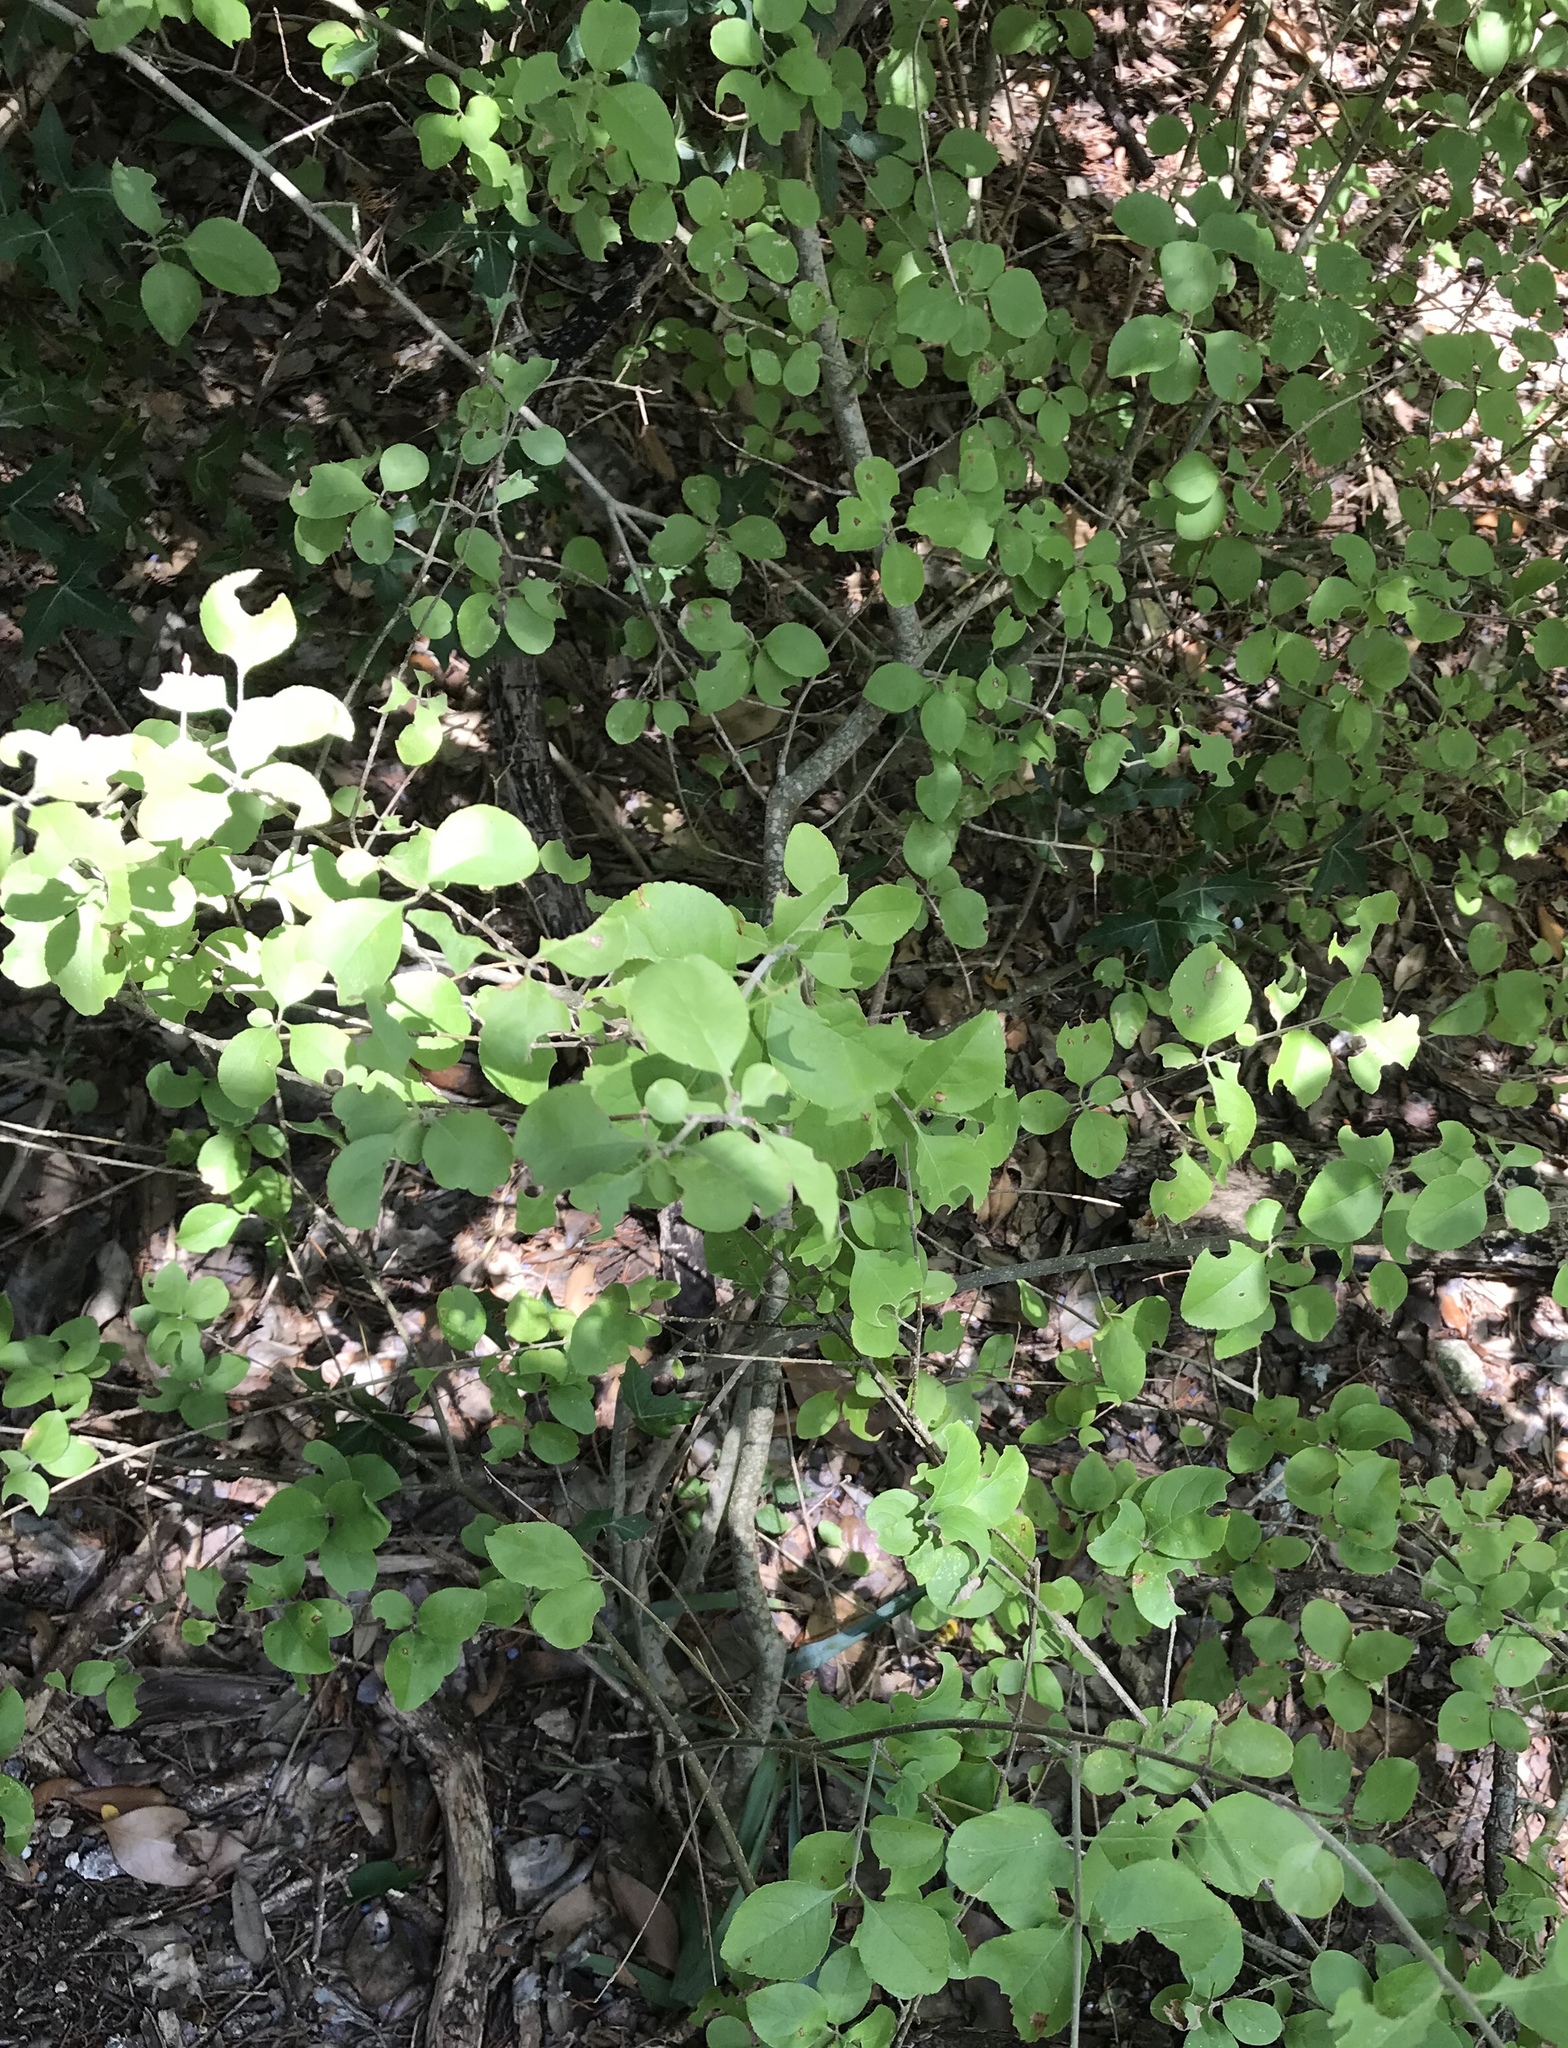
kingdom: Plantae
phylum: Tracheophyta
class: Magnoliopsida
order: Lamiales
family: Oleaceae
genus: Forestiera
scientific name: Forestiera pubescens
